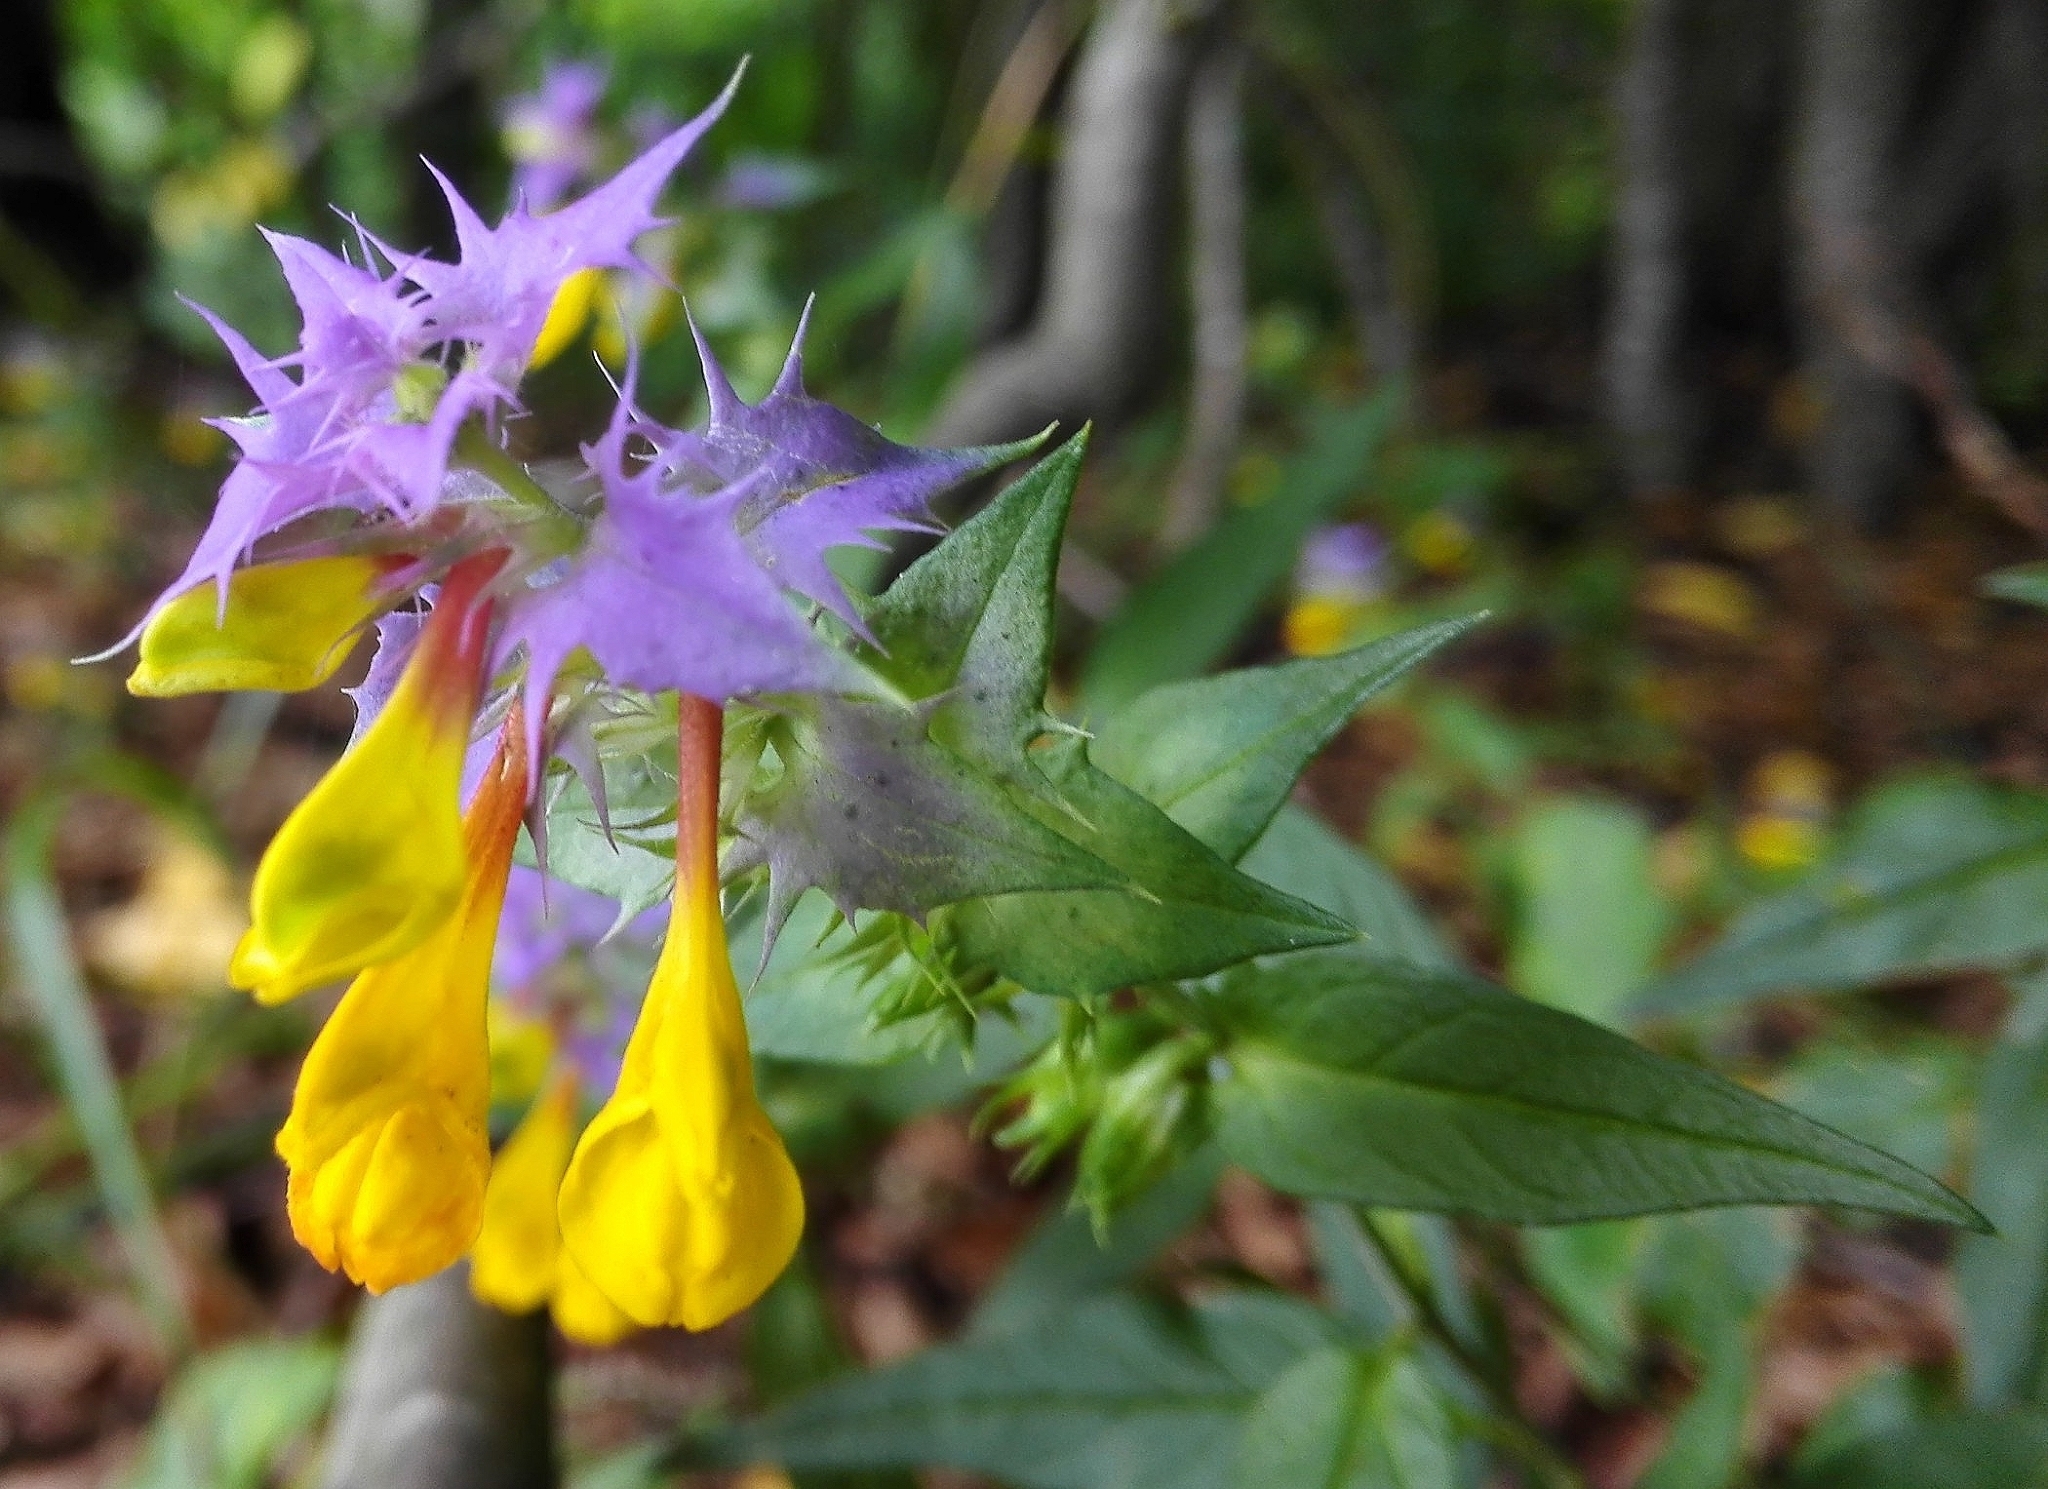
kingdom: Plantae
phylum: Tracheophyta
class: Magnoliopsida
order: Lamiales
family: Orobanchaceae
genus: Melampyrum
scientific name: Melampyrum nemorosum
